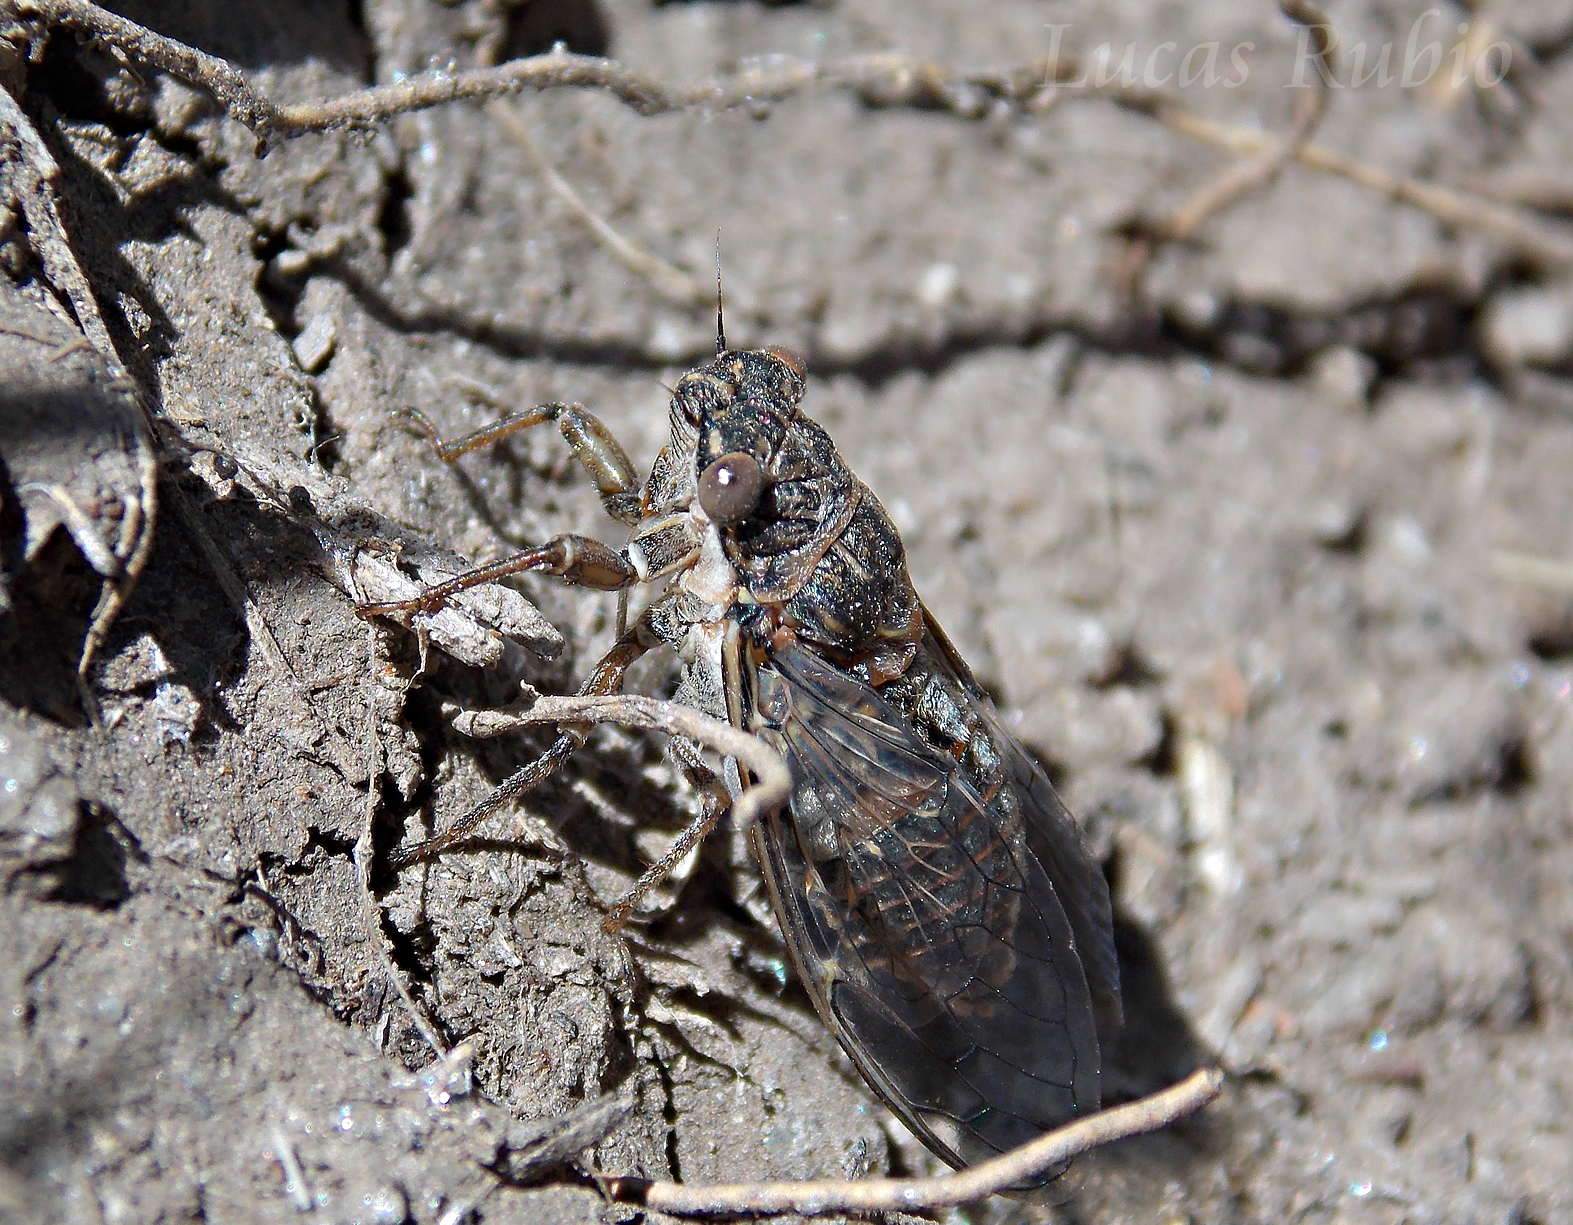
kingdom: Animalia
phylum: Arthropoda
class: Insecta
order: Hemiptera
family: Cicadidae
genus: Tympanoterpes
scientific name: Tympanoterpes cordubensis
